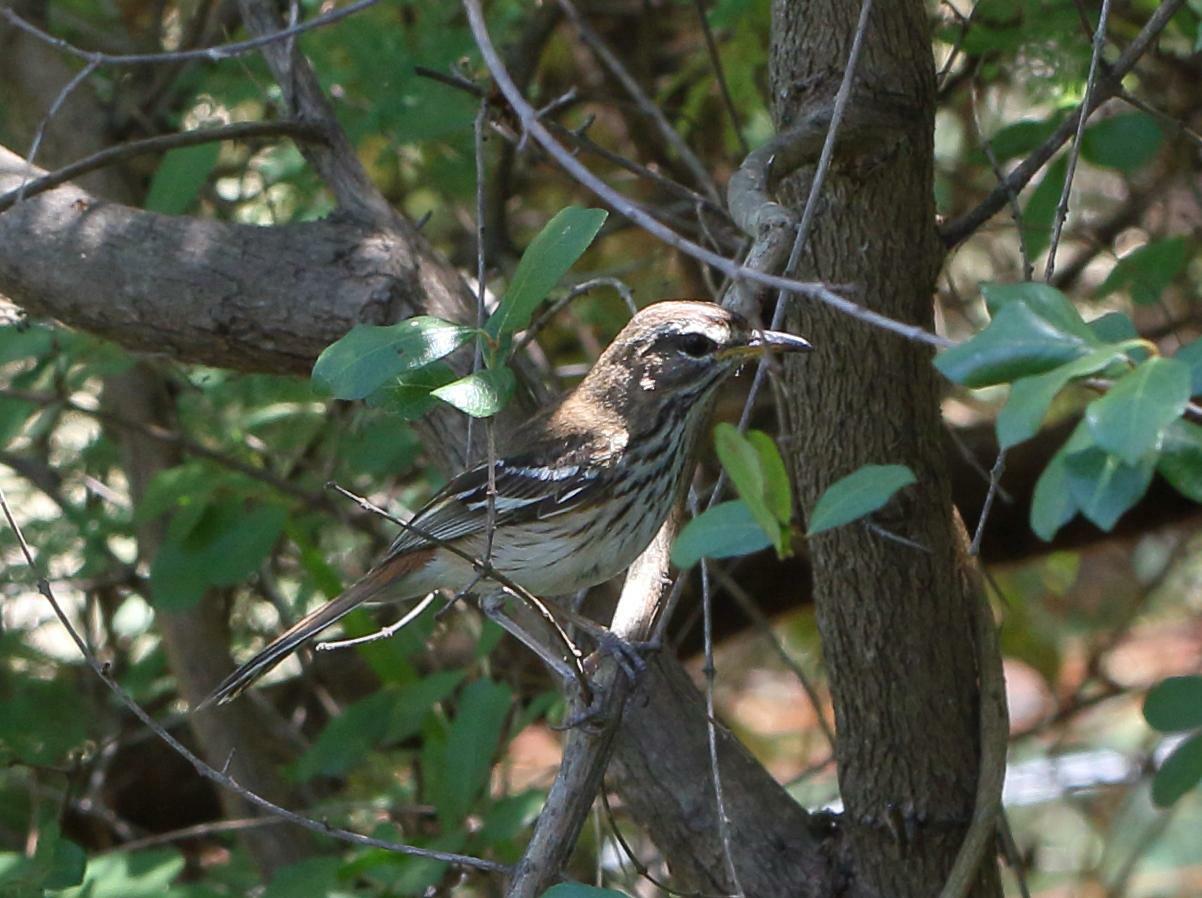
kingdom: Animalia
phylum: Chordata
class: Aves
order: Passeriformes
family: Muscicapidae
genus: Erythropygia
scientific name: Erythropygia leucophrys
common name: White-browed scrub robin
